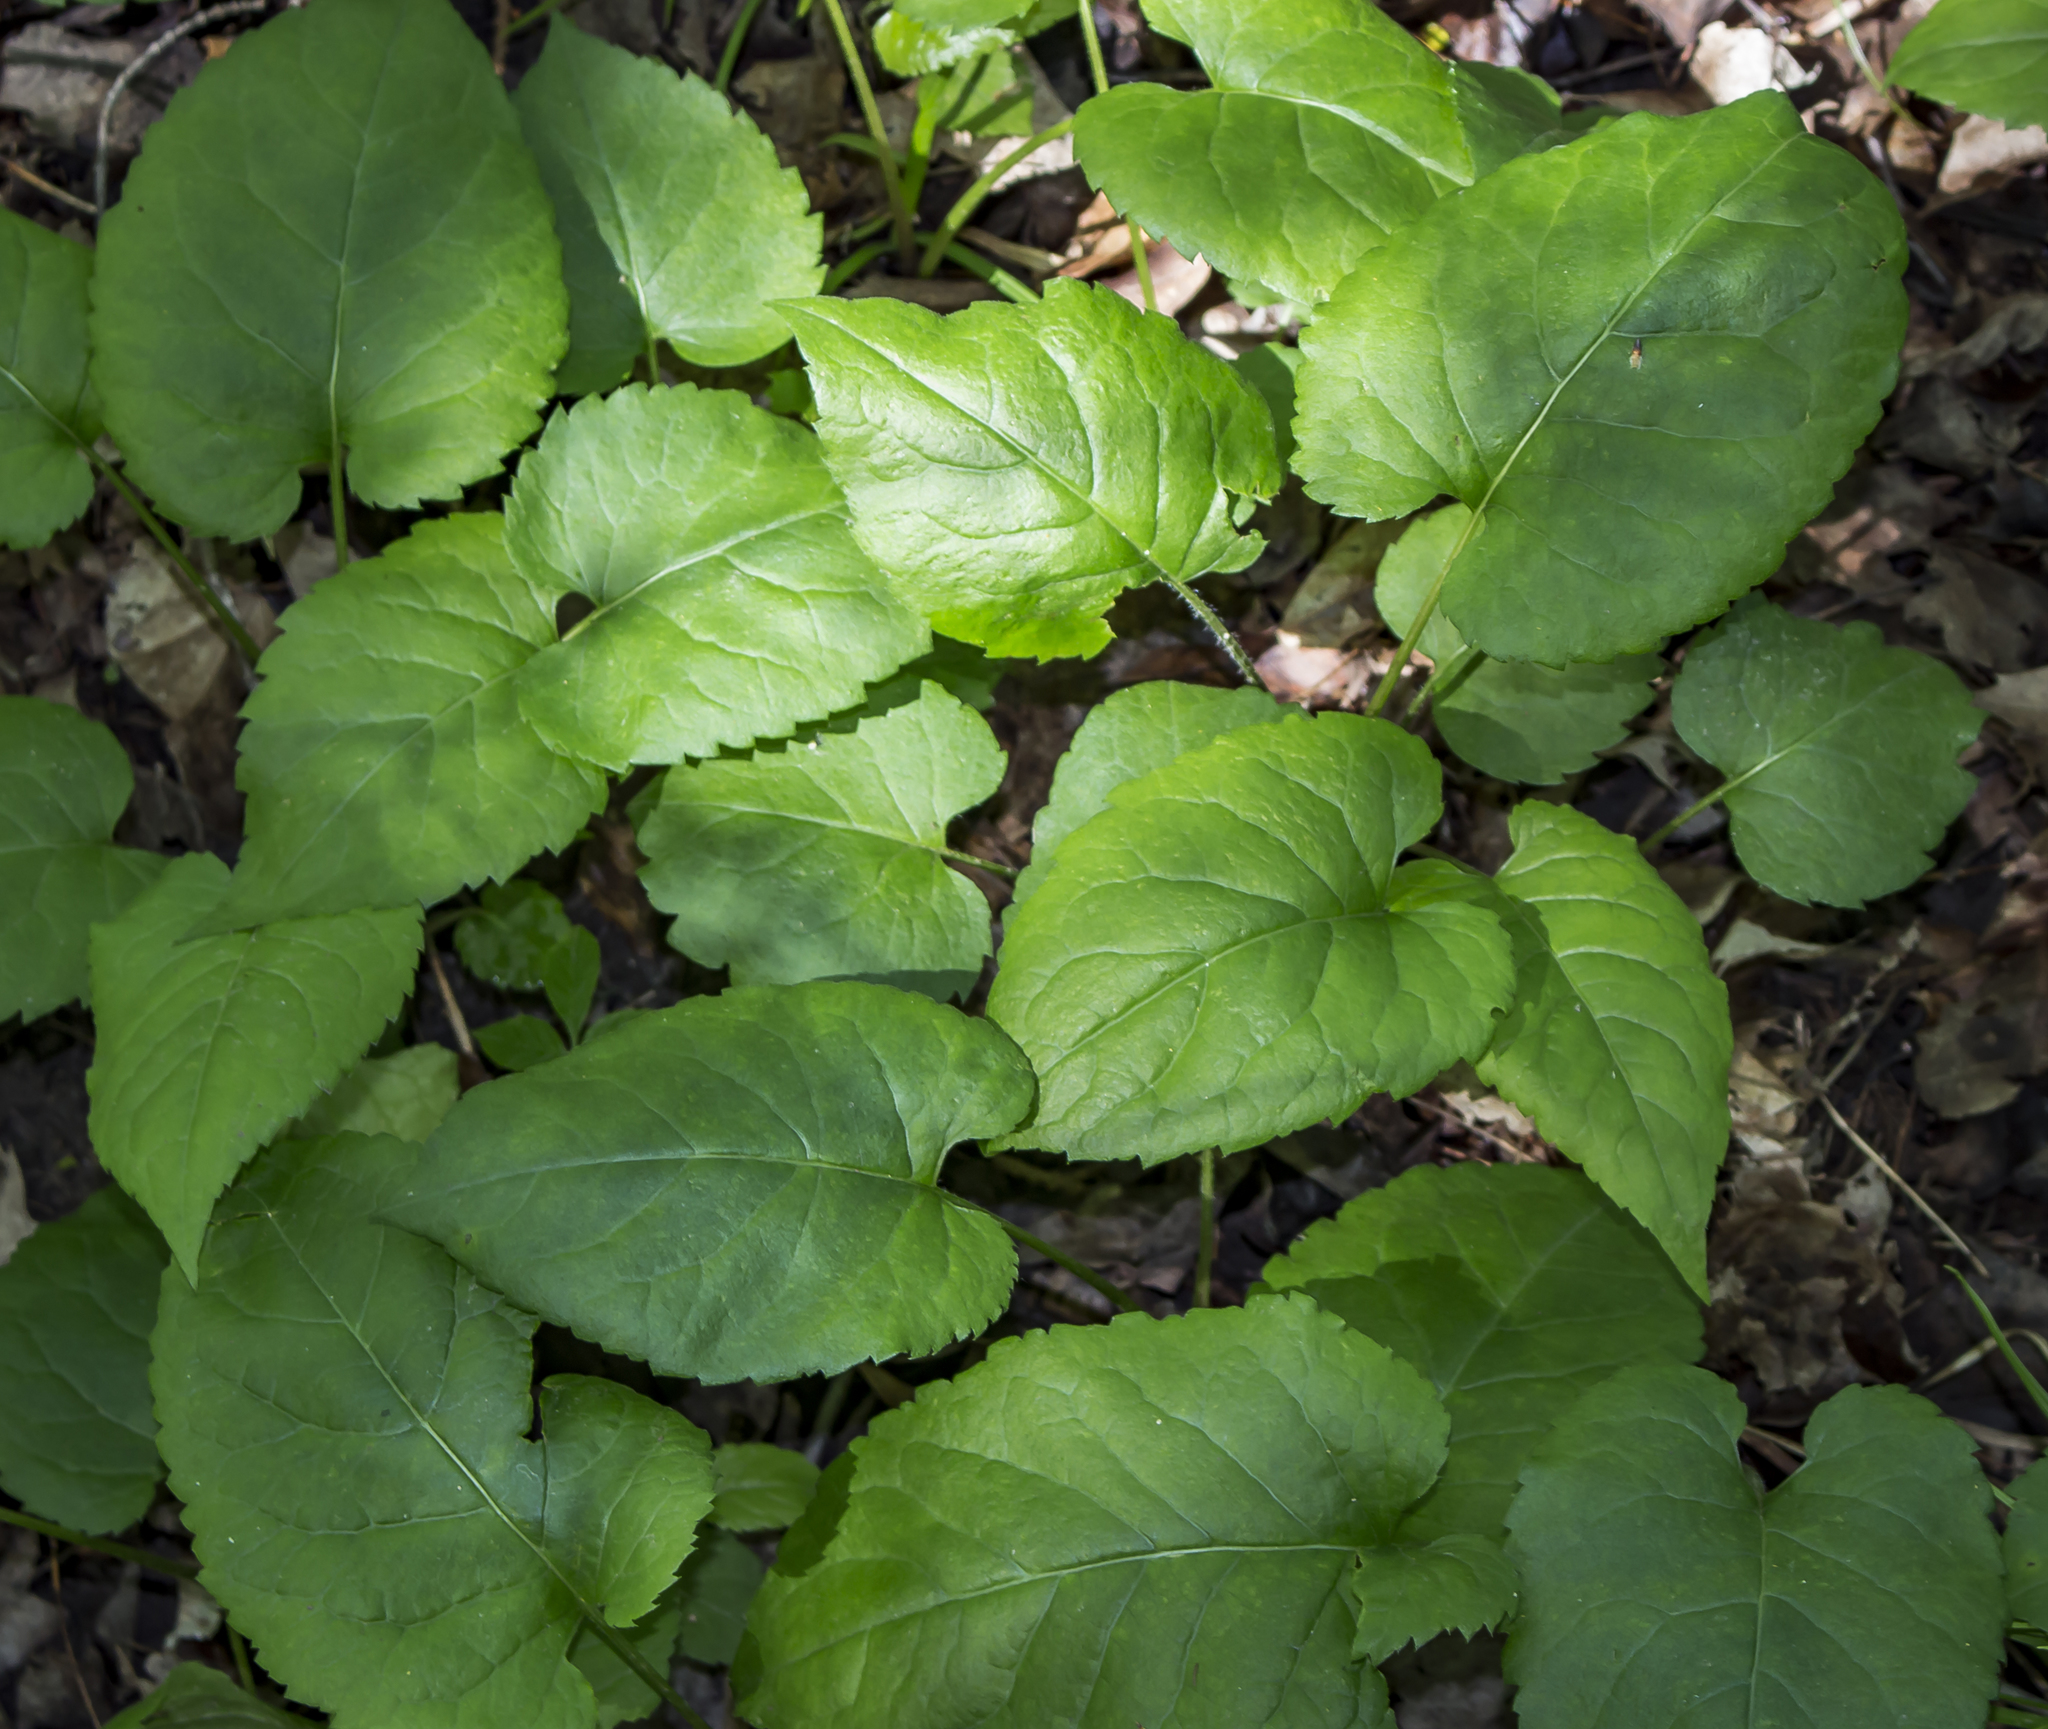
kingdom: Plantae
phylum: Tracheophyta
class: Magnoliopsida
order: Asterales
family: Asteraceae
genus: Eurybia
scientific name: Eurybia macrophylla
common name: Big-leaved aster
